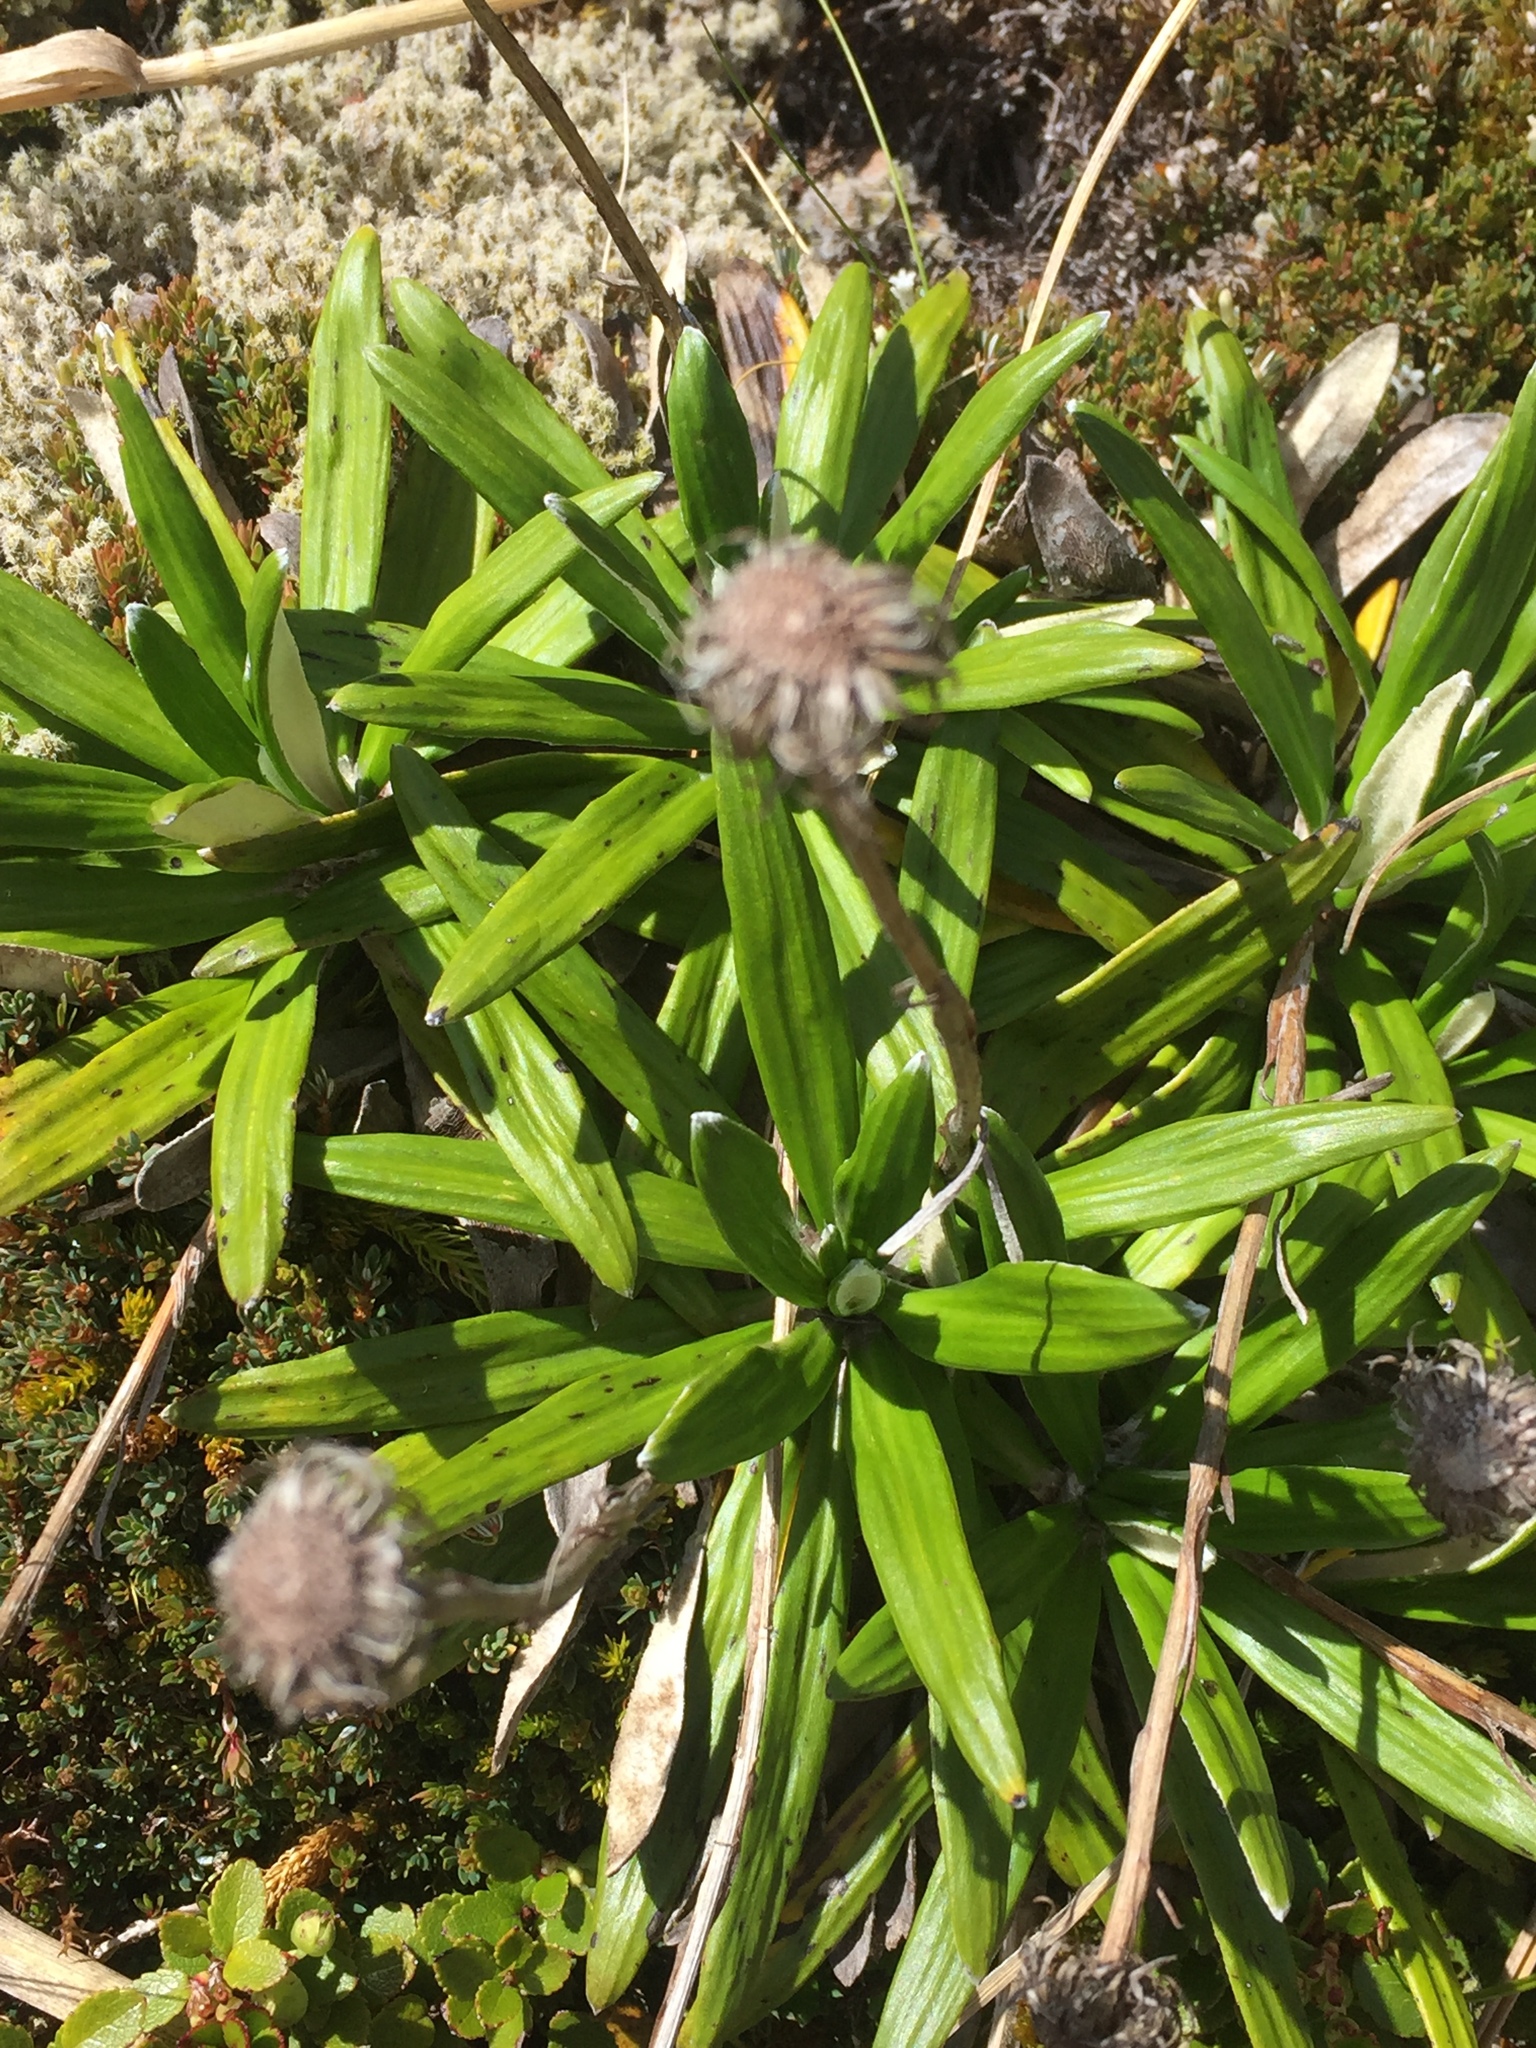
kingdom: Plantae
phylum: Tracheophyta
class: Magnoliopsida
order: Asterales
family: Asteraceae
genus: Celmisia
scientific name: Celmisia spectabilis
